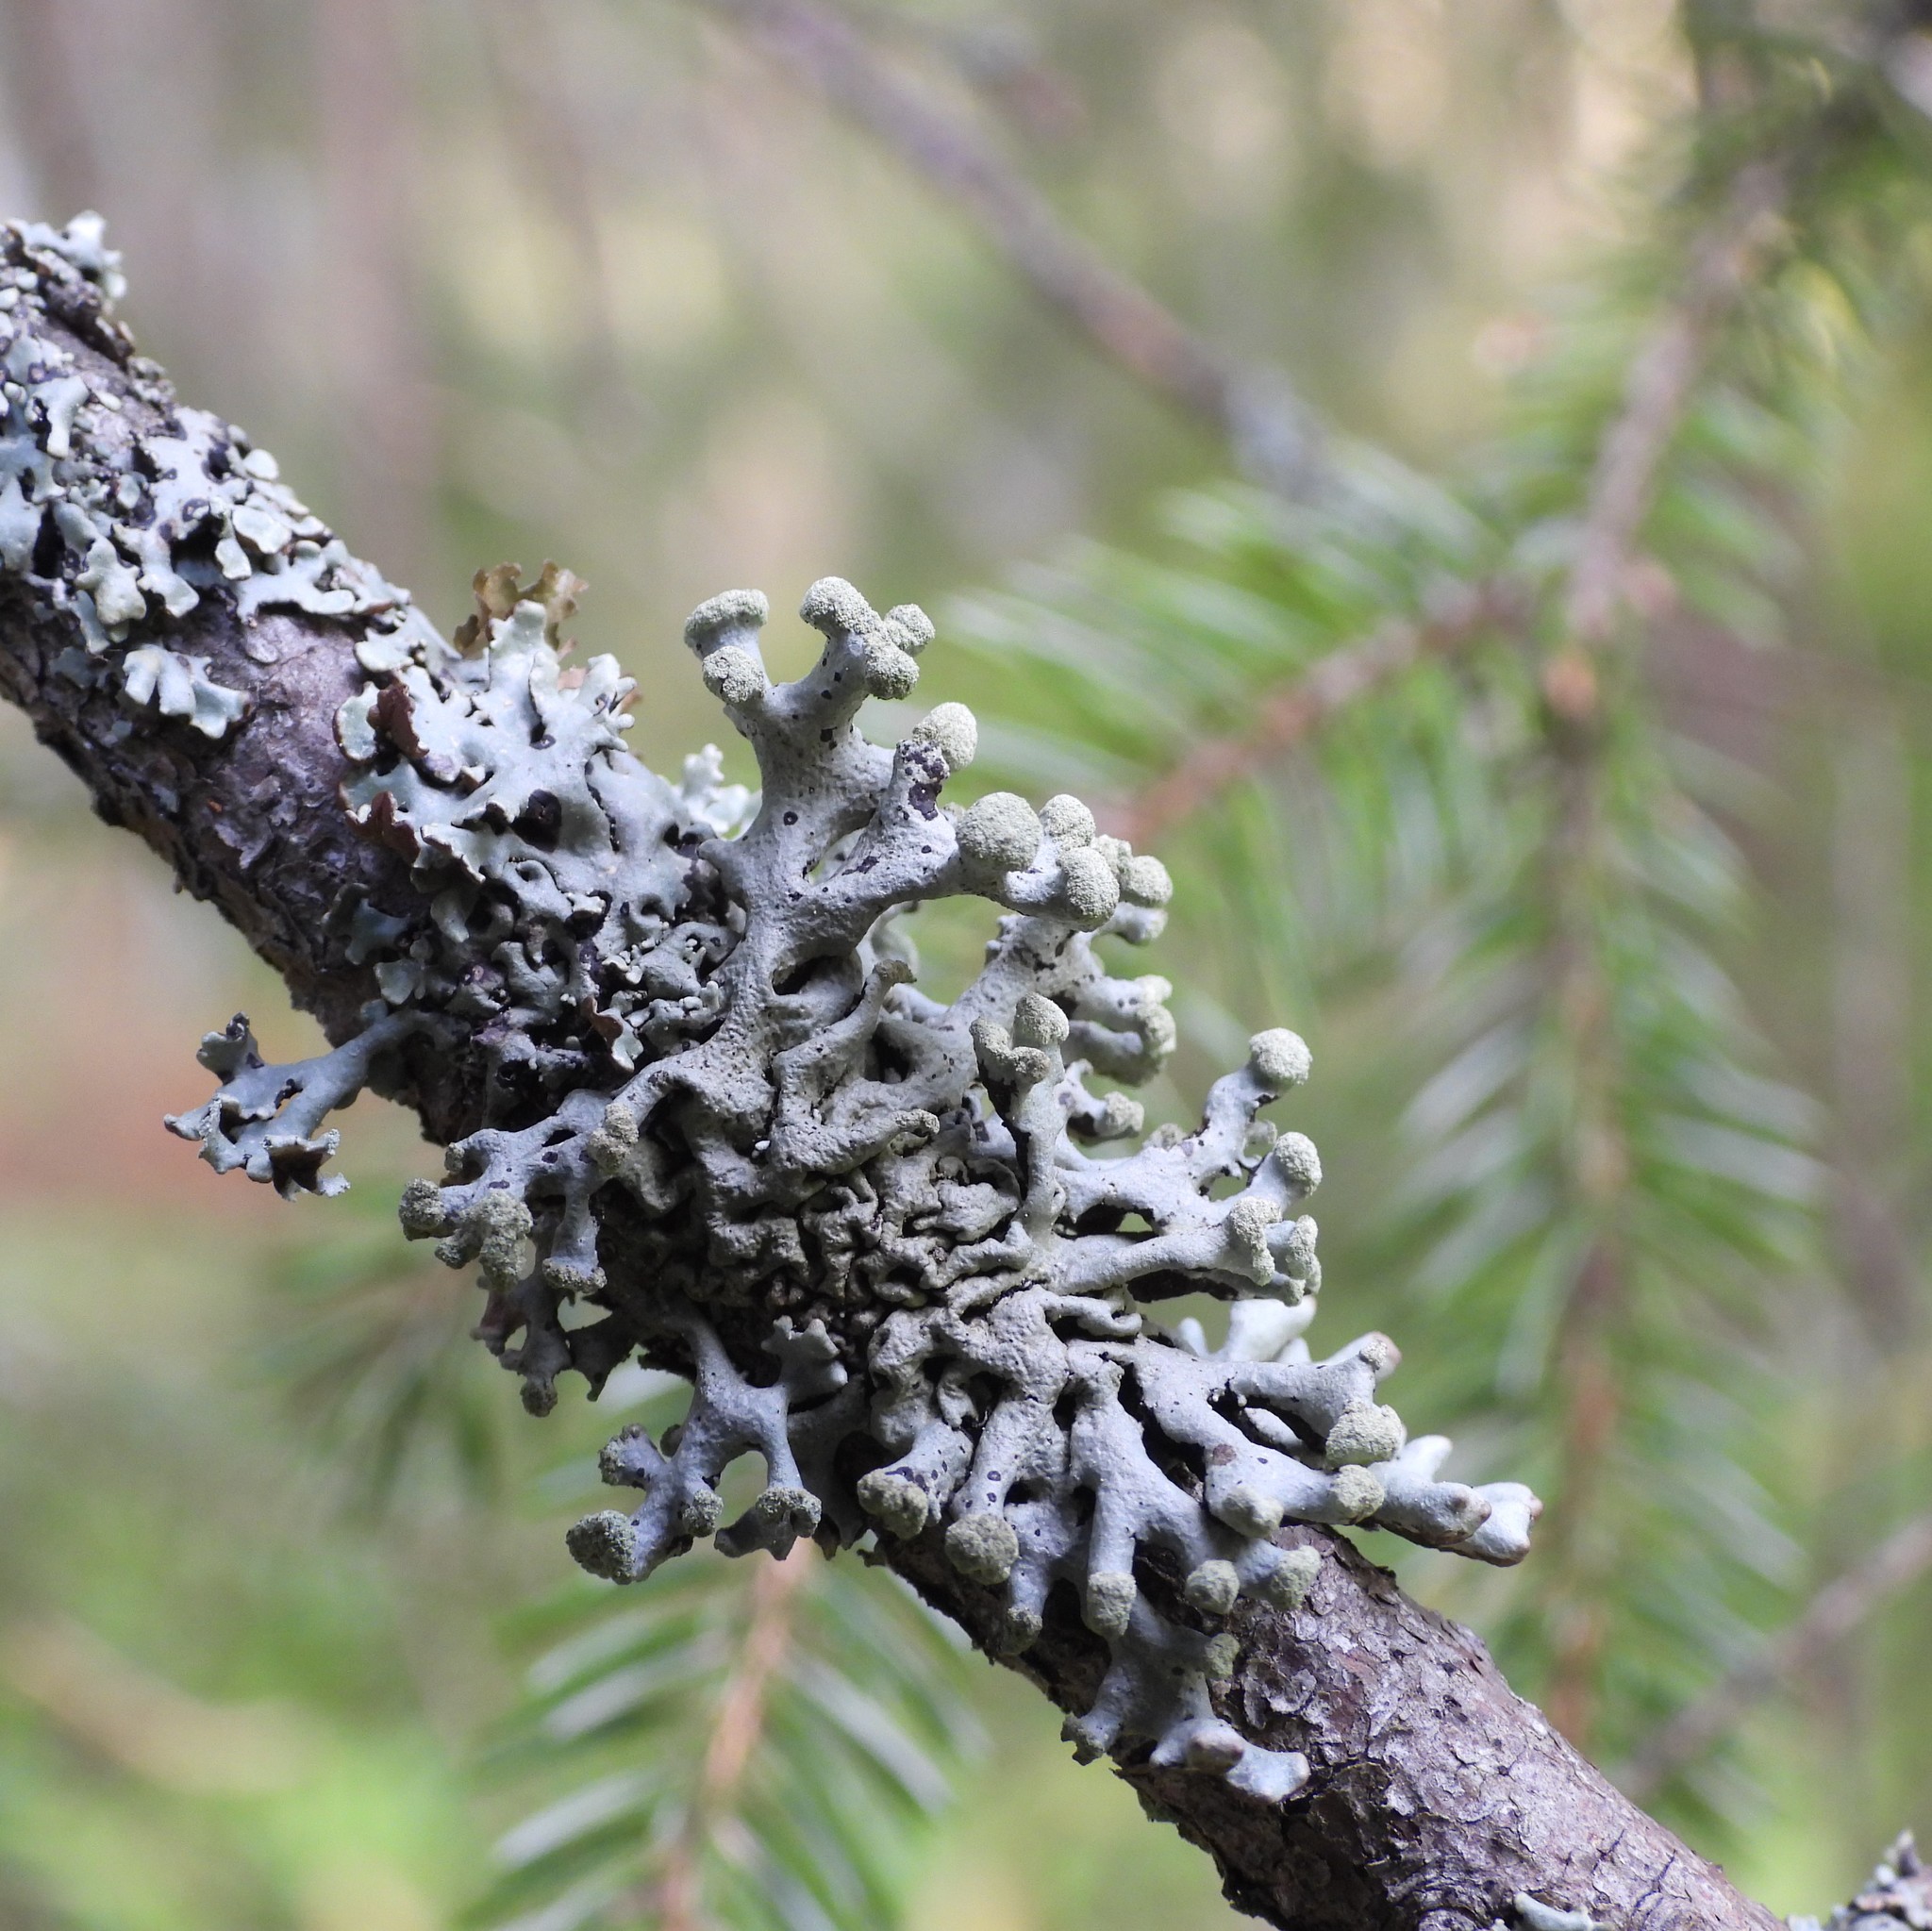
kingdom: Fungi
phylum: Ascomycota
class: Lecanoromycetes
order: Lecanorales
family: Parmeliaceae
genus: Hypogymnia
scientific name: Hypogymnia tubulosa
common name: Powder-headed tube lichen
